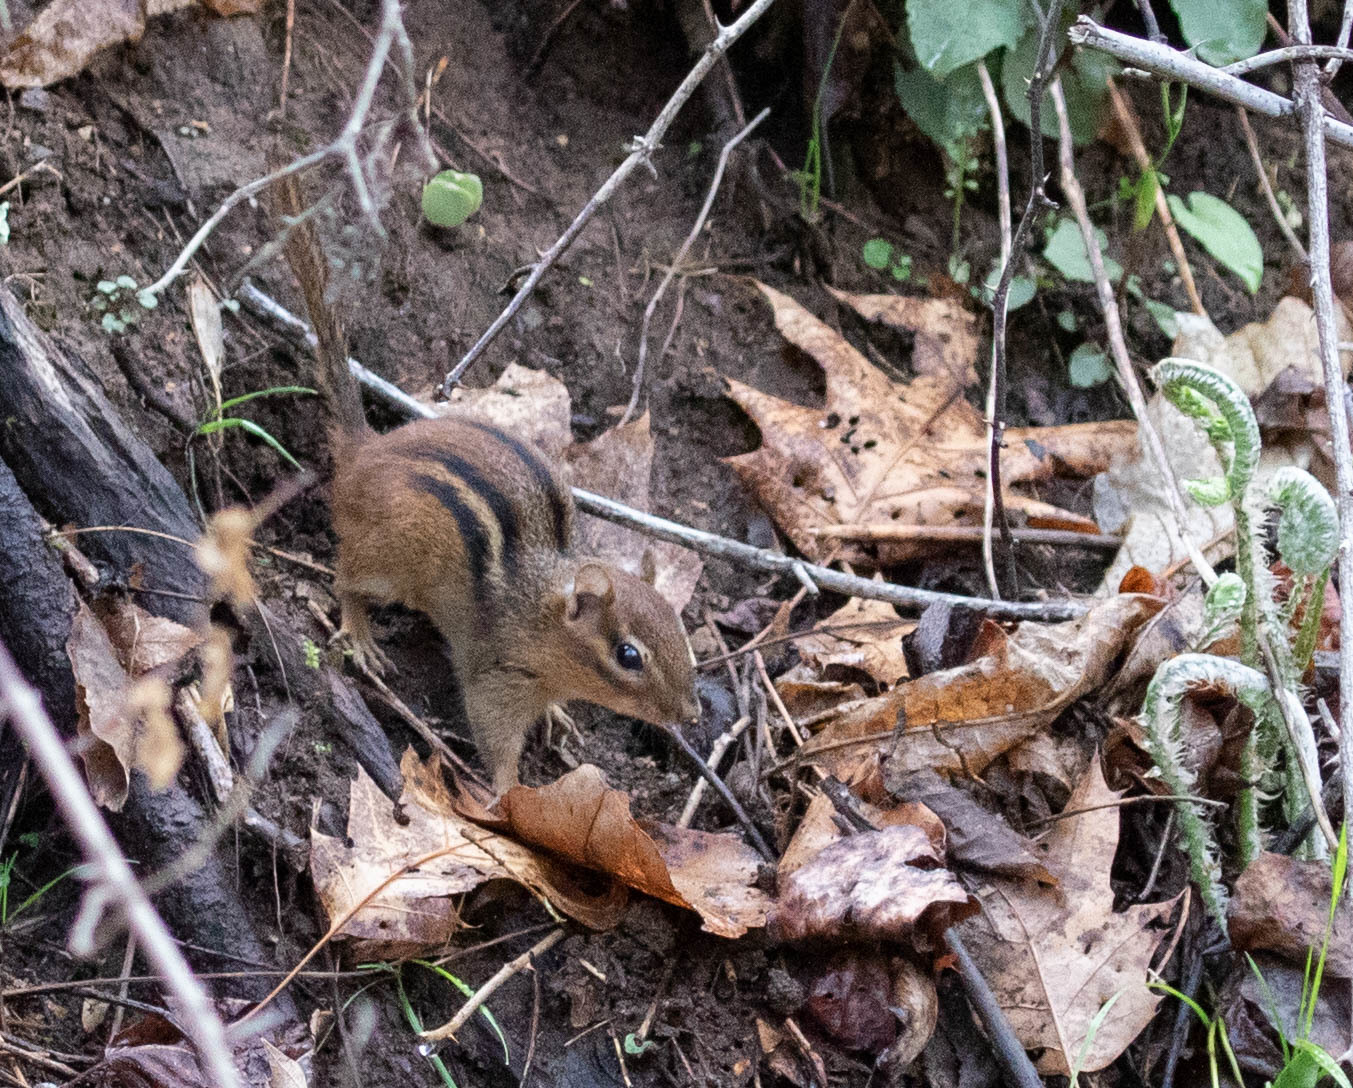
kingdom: Animalia
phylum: Chordata
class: Mammalia
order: Rodentia
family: Sciuridae
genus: Tamias
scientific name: Tamias striatus
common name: Eastern chipmunk
